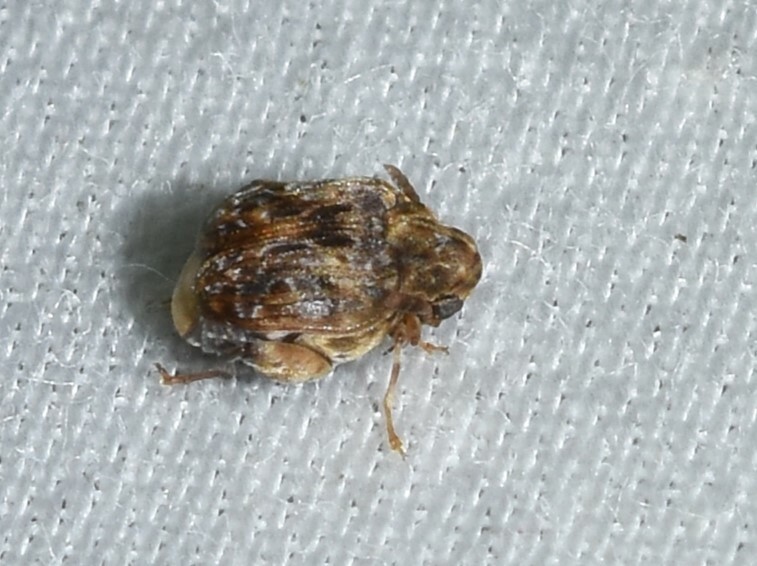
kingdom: Animalia
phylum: Arthropoda
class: Insecta
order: Coleoptera
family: Chrysomelidae
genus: Gibbobruchus
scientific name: Gibbobruchus mimus
